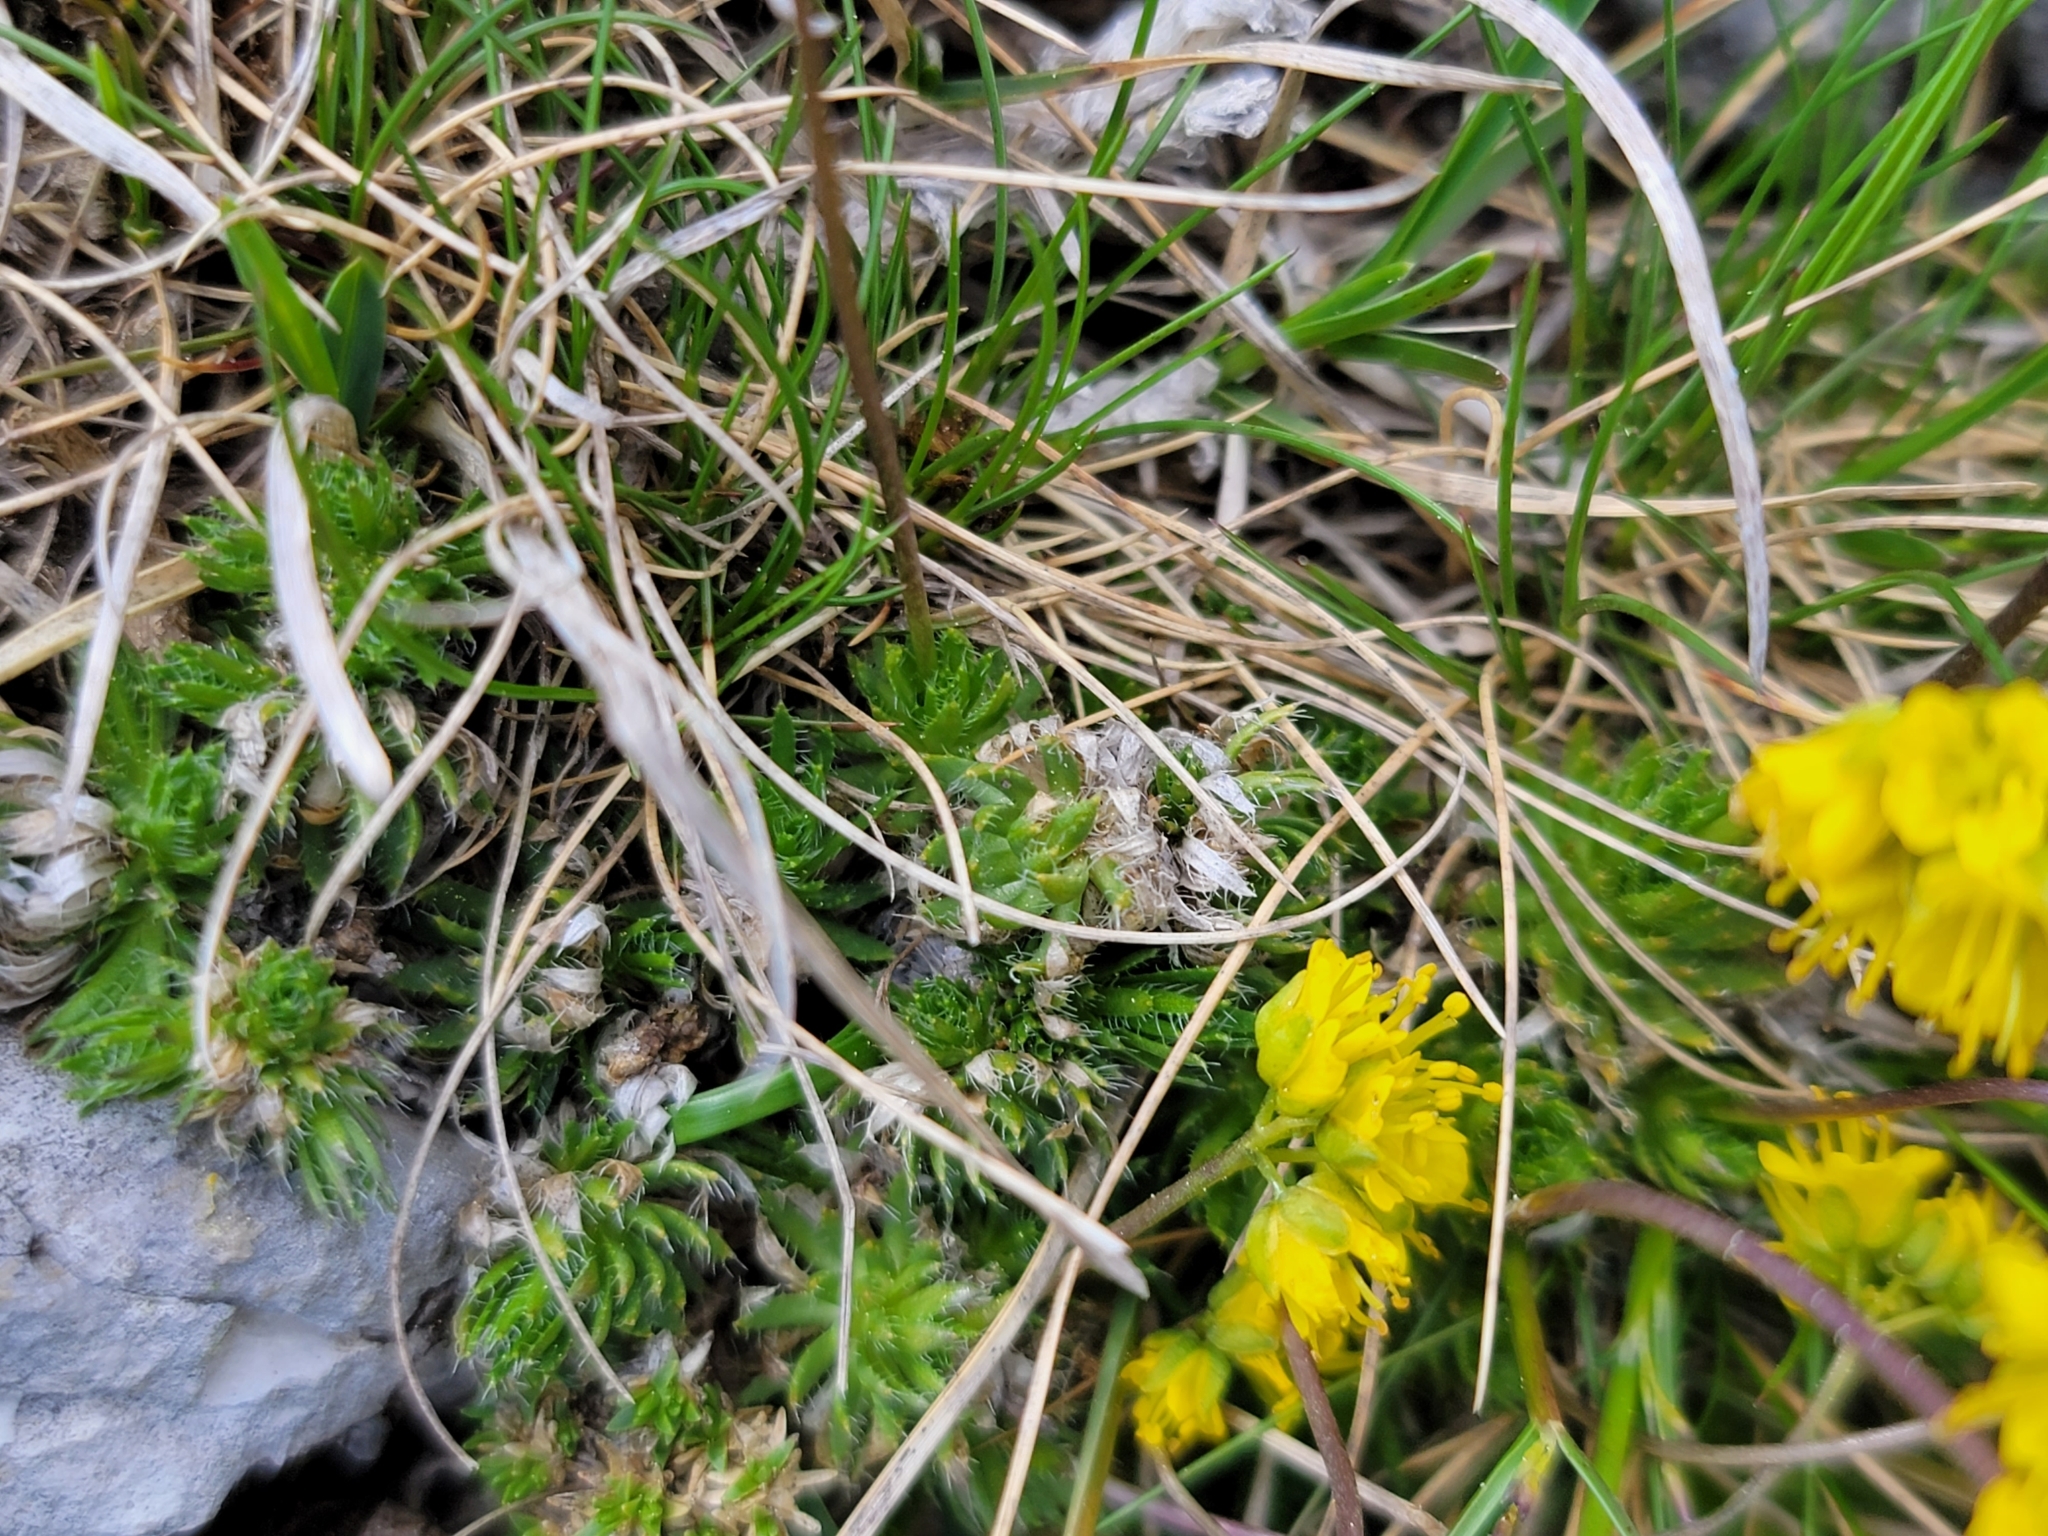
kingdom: Plantae
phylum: Tracheophyta
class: Magnoliopsida
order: Brassicales
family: Brassicaceae
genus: Draba
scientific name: Draba aizoides
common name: Yellow whitlowgrass
